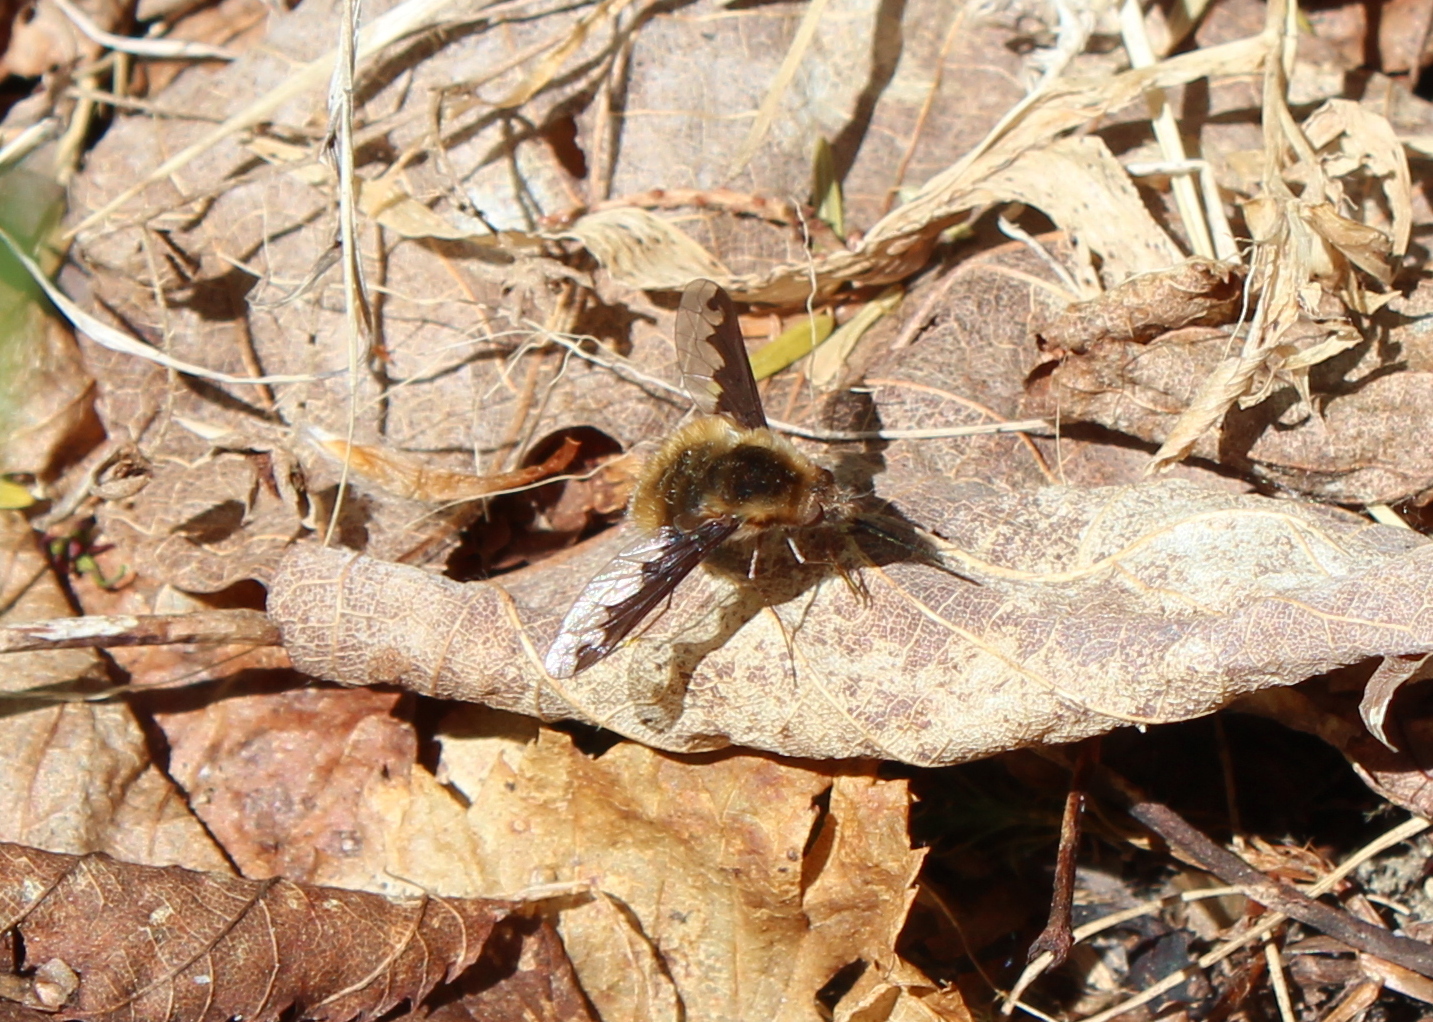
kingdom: Animalia
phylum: Arthropoda
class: Insecta
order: Diptera
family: Bombyliidae
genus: Bombylius
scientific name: Bombylius major
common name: Bee fly
